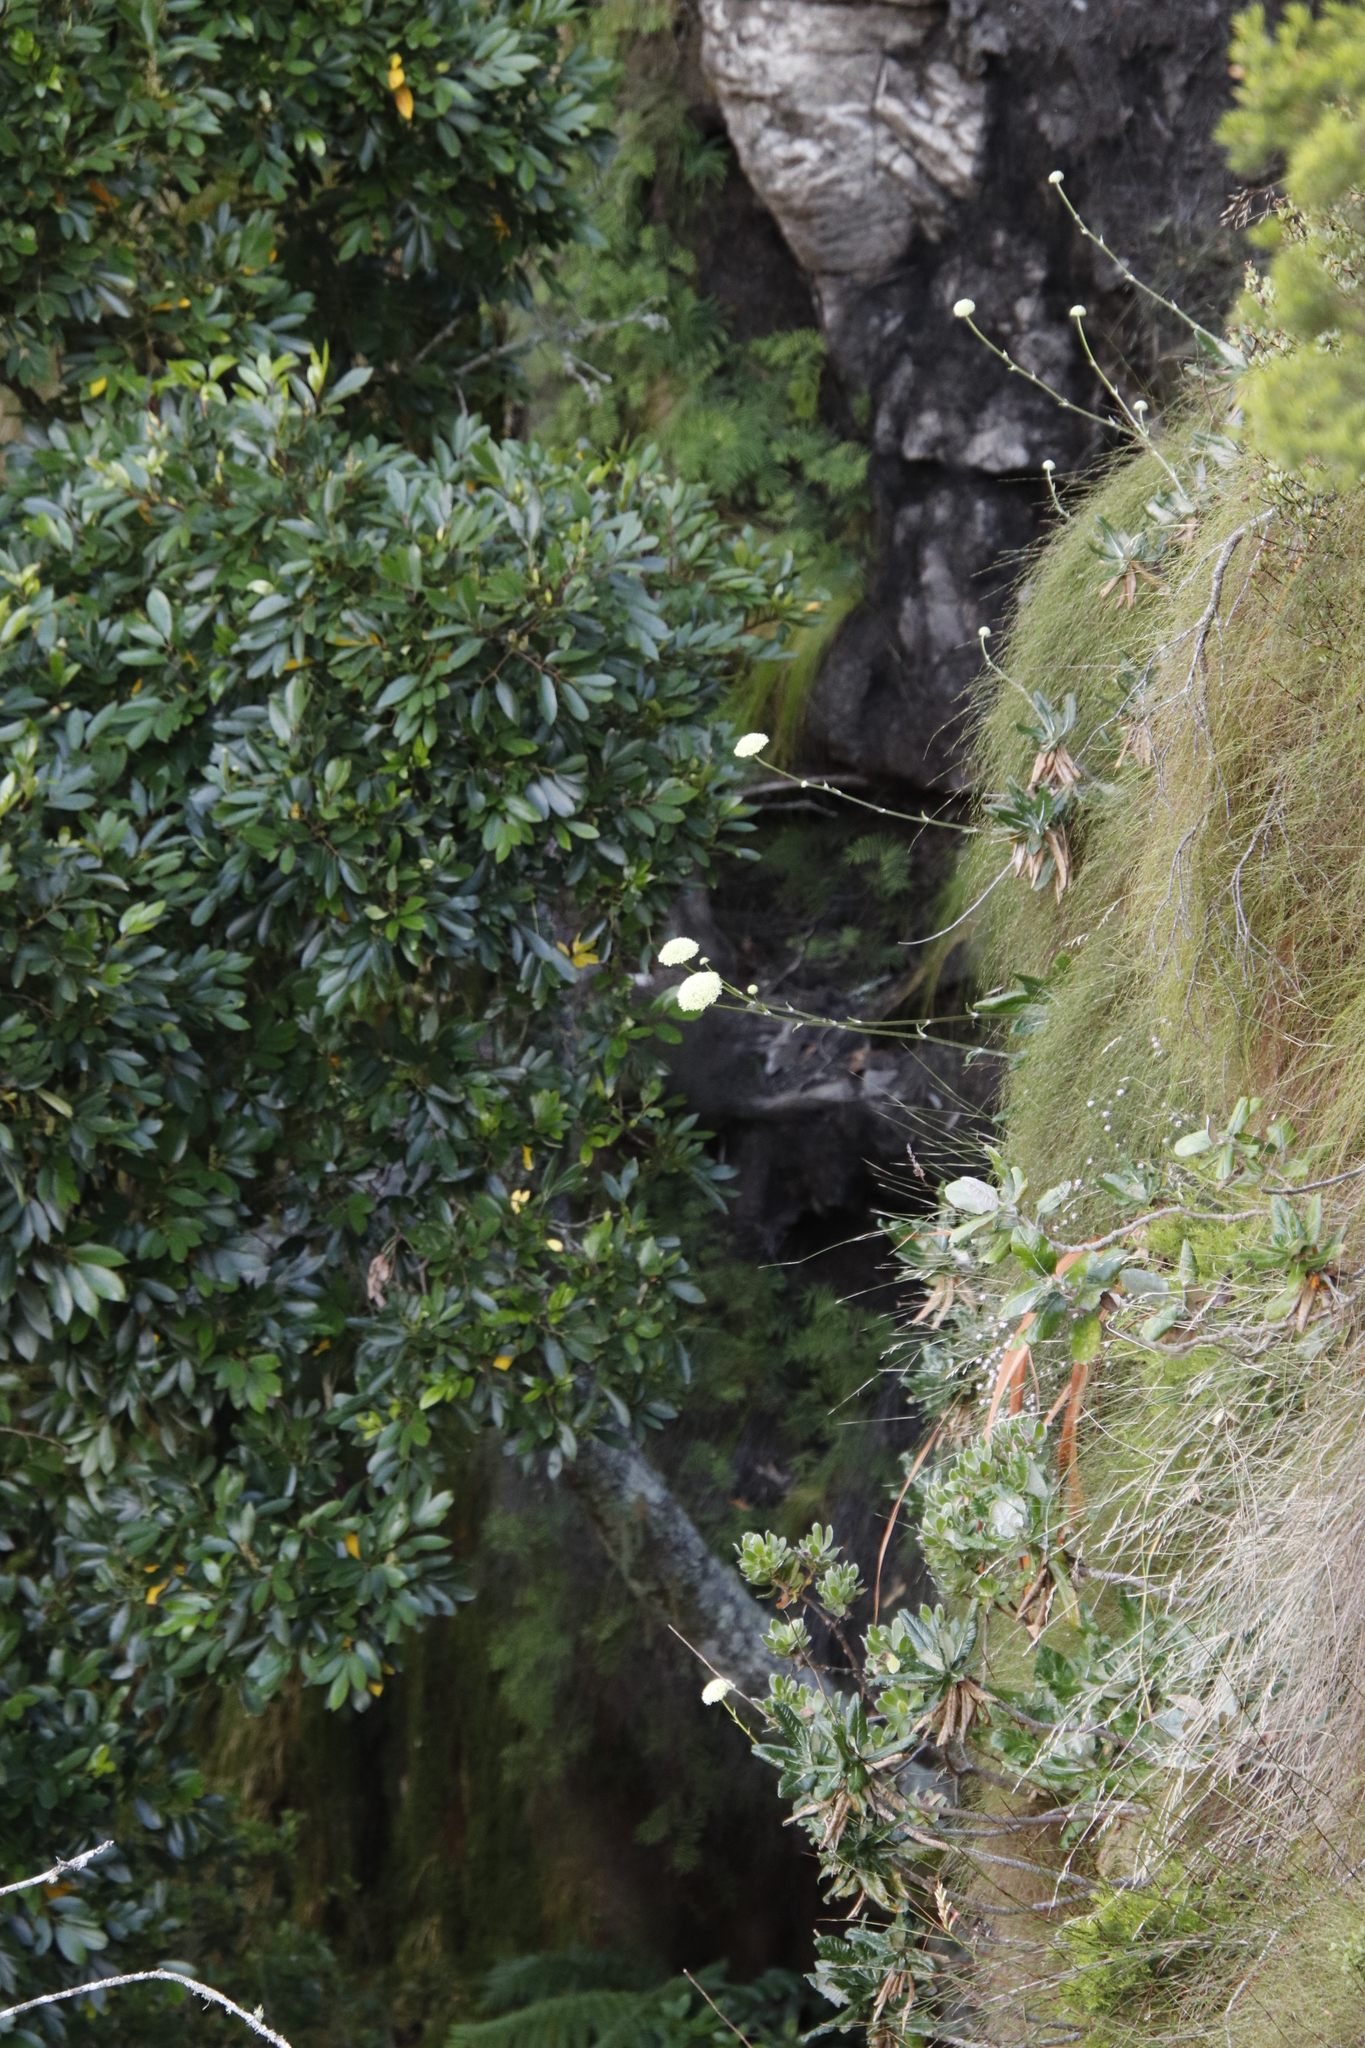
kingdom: Plantae
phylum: Tracheophyta
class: Magnoliopsida
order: Apiales
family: Apiaceae
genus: Hermas
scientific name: Hermas villosa
